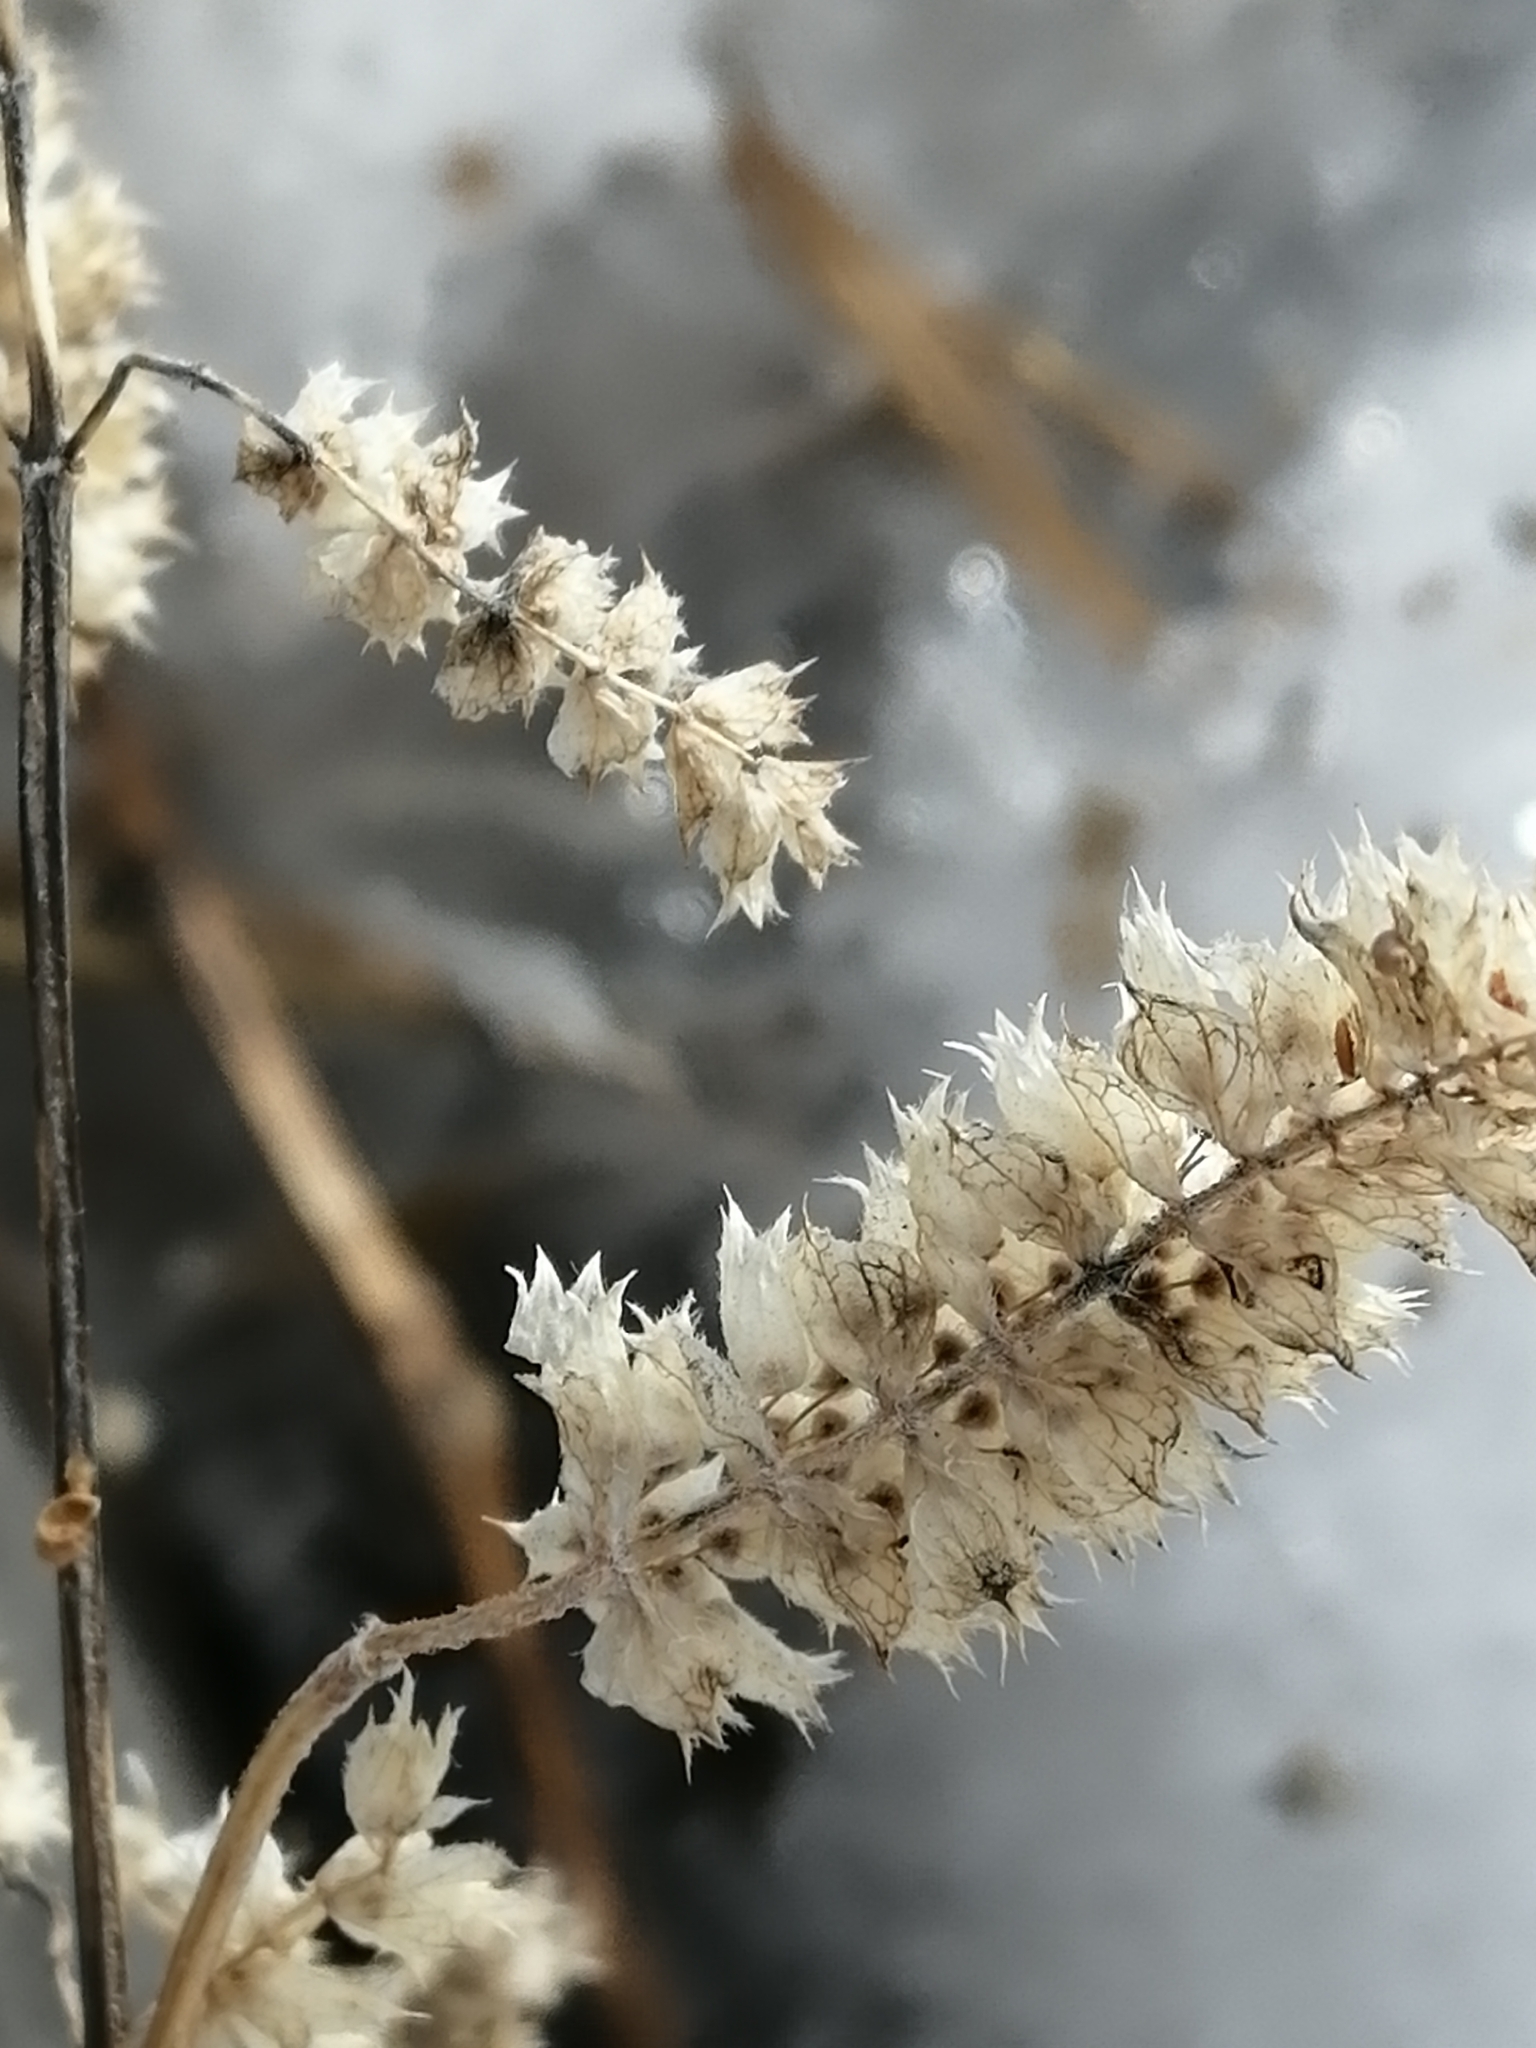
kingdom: Plantae
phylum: Tracheophyta
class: Magnoliopsida
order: Lamiales
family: Lamiaceae
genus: Elsholtzia
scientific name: Elsholtzia ciliata
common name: Ciliate elsholtzia
